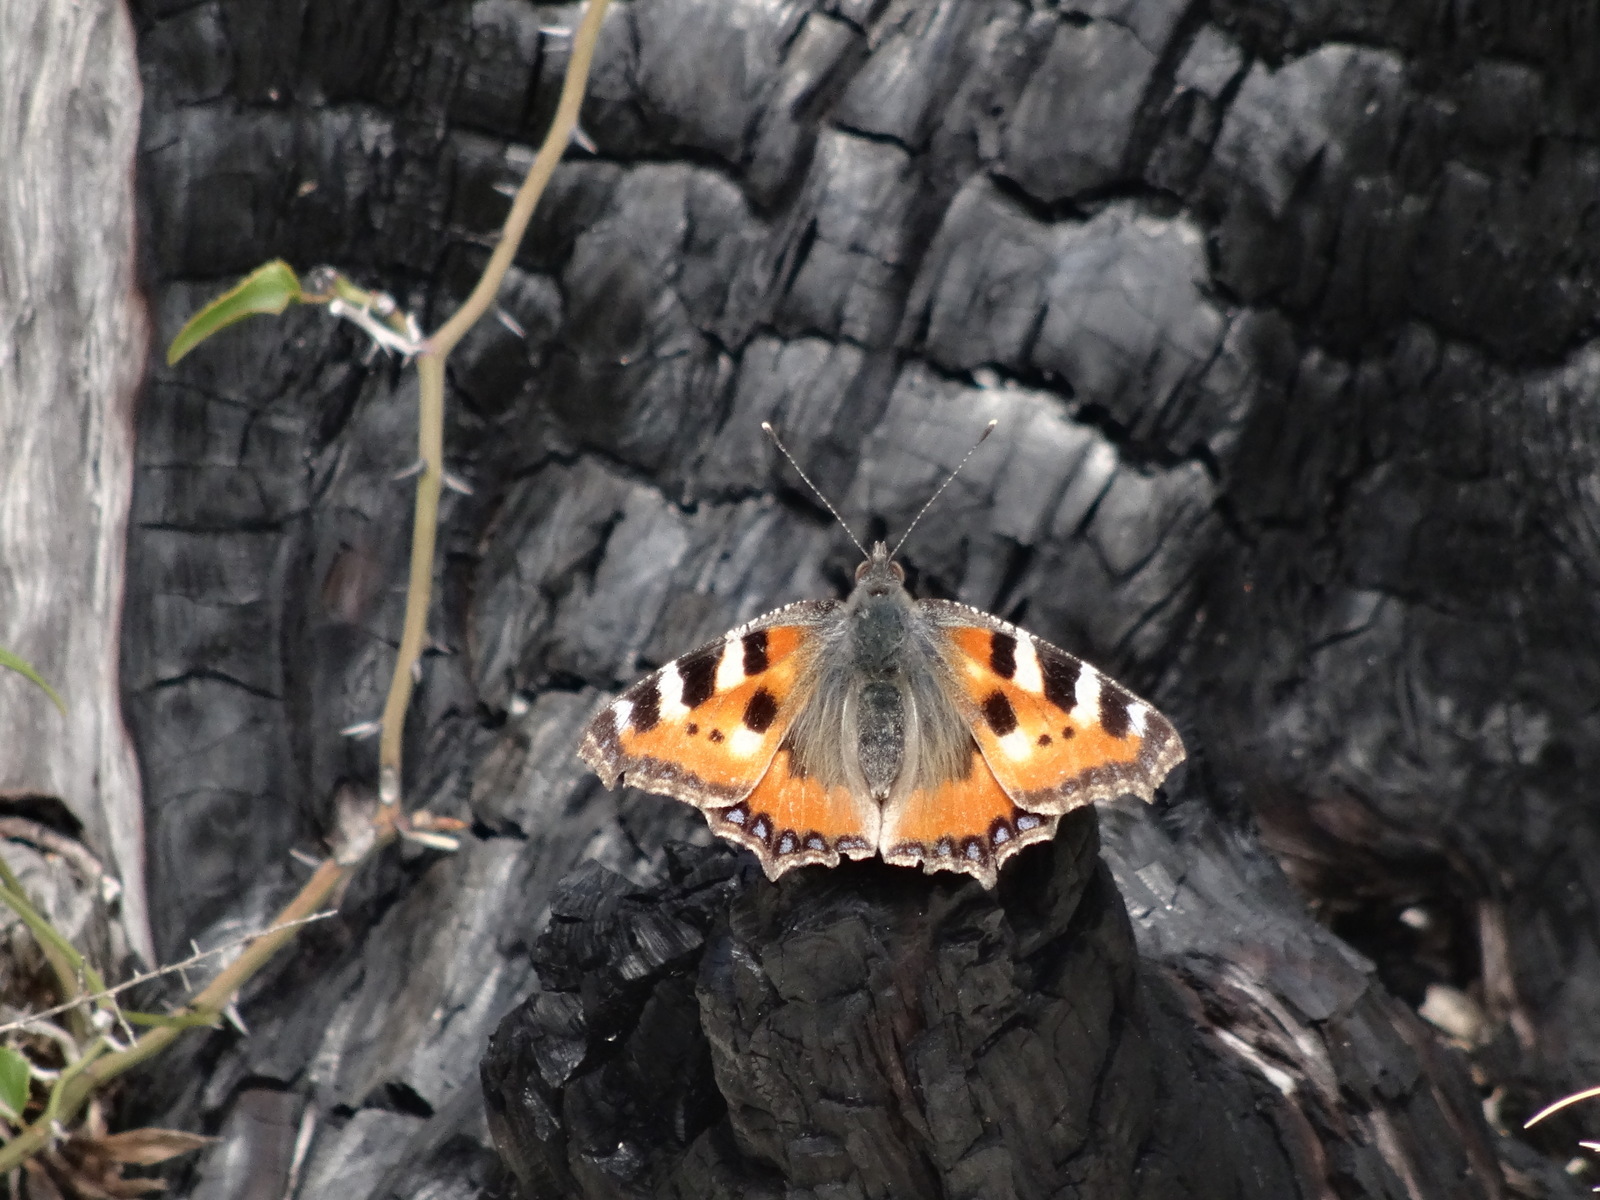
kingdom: Animalia
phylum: Arthropoda
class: Insecta
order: Lepidoptera
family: Nymphalidae
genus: Aglais
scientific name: Aglais urticae
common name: Small tortoiseshell
